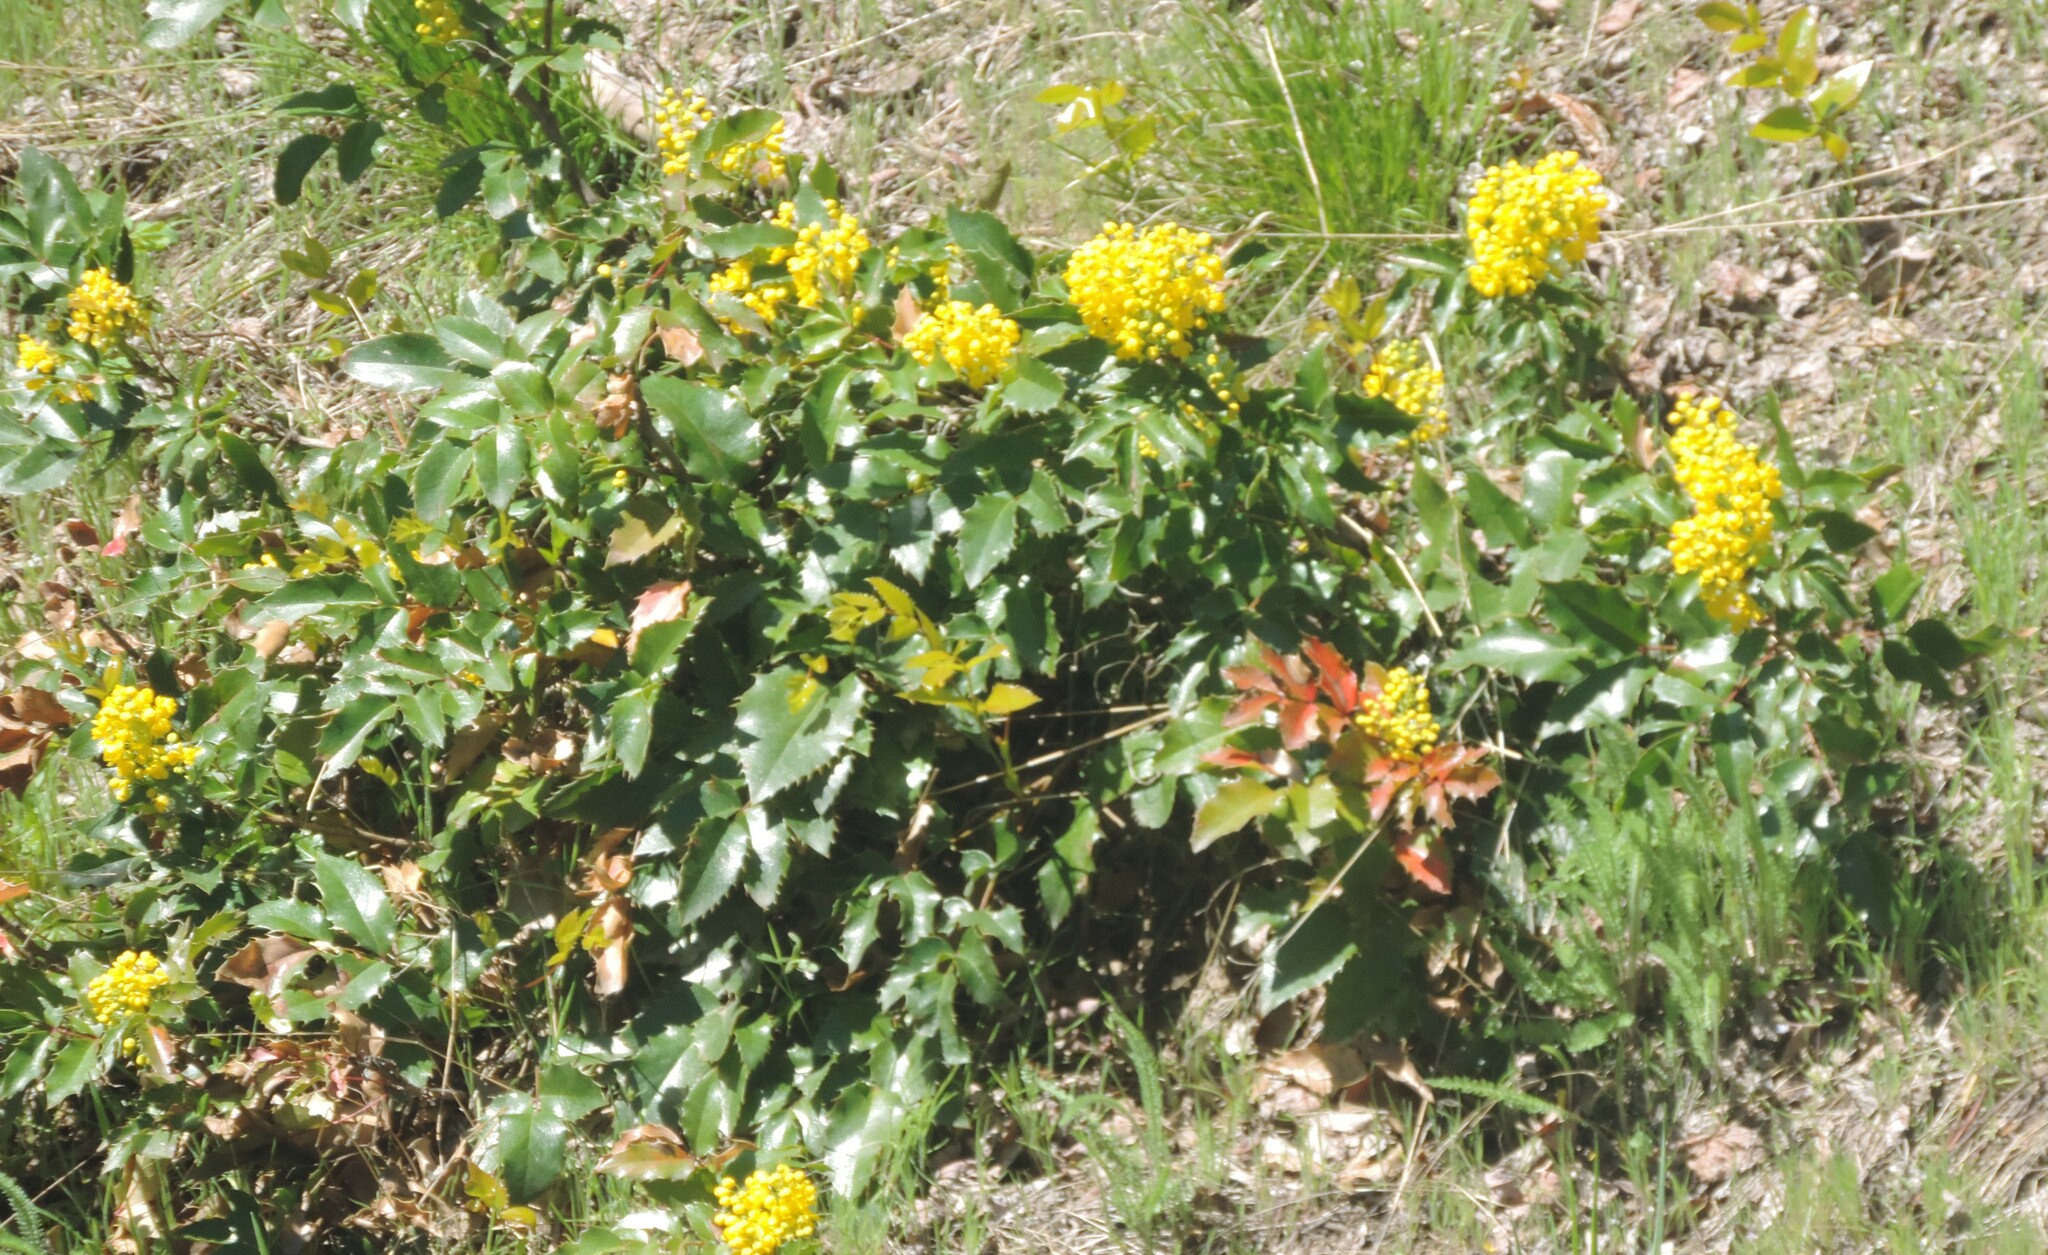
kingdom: Plantae
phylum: Tracheophyta
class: Magnoliopsida
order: Ranunculales
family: Berberidaceae
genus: Mahonia
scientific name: Mahonia aquifolium
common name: Oregon-grape
